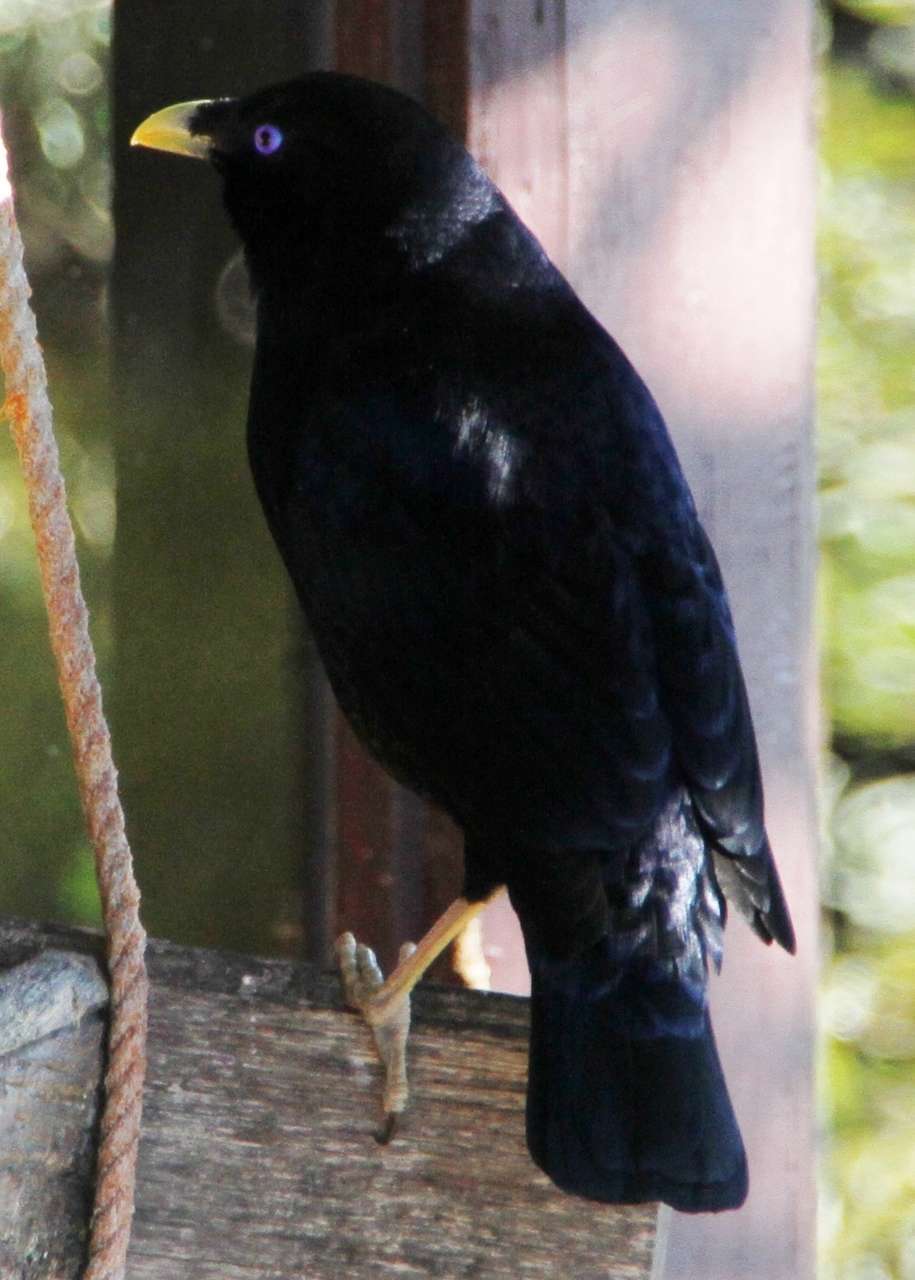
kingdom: Animalia
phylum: Chordata
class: Aves
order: Passeriformes
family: Ptilonorhynchidae
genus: Ptilonorhynchus
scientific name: Ptilonorhynchus violaceus
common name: Satin bowerbird
